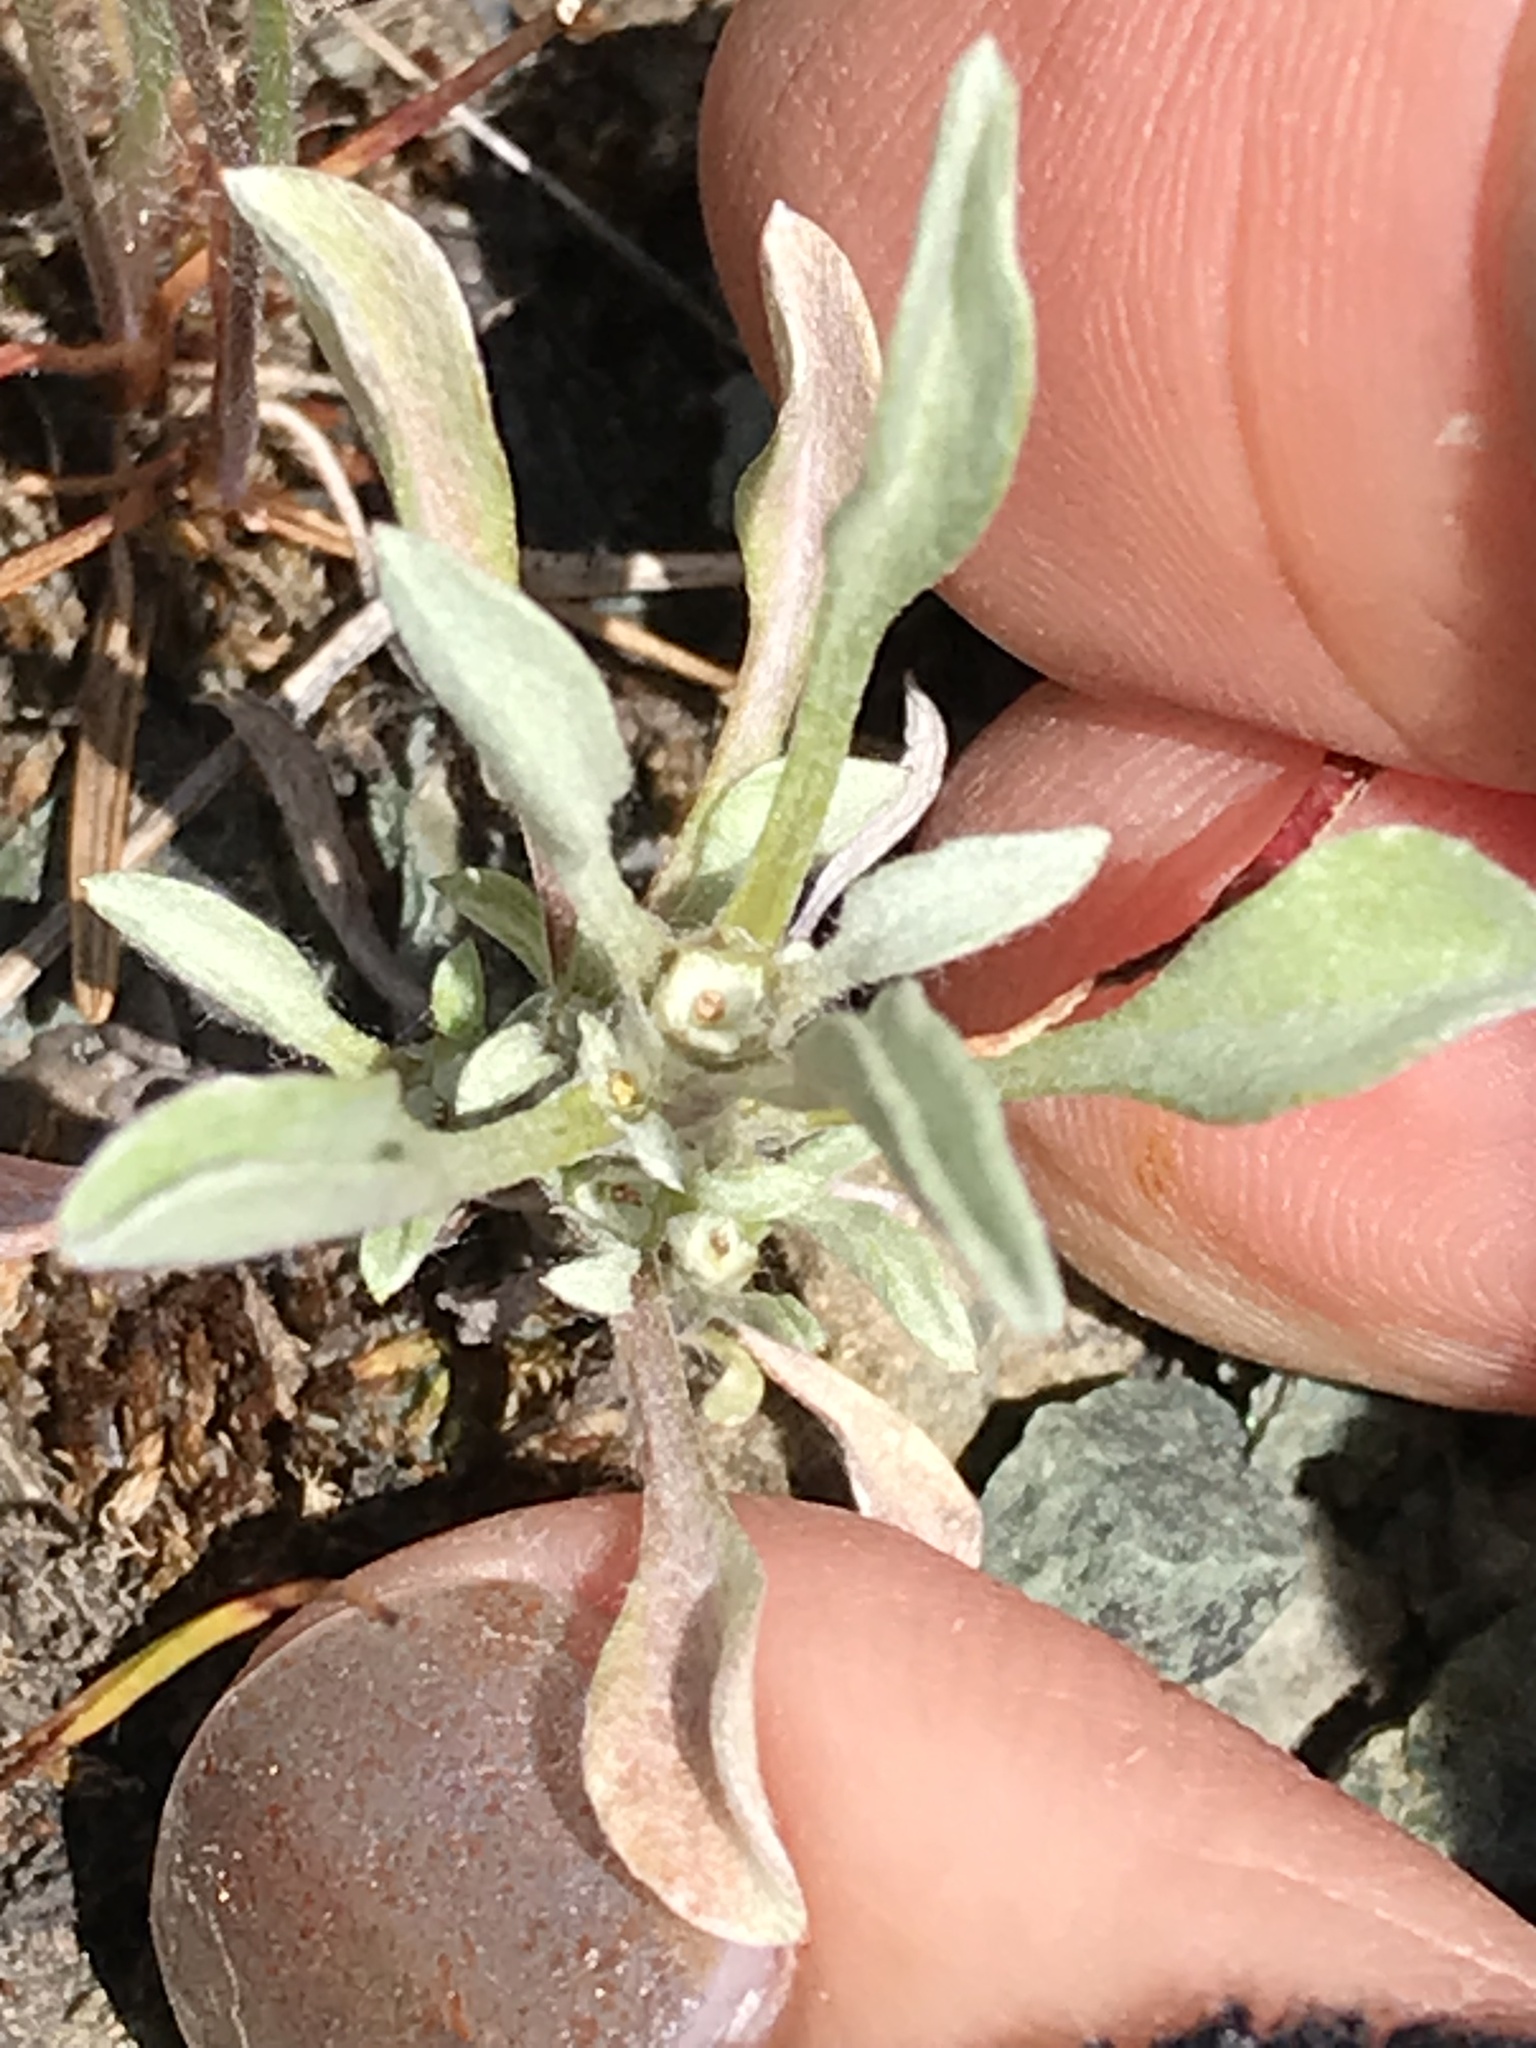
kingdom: Plantae
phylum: Tracheophyta
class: Magnoliopsida
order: Asterales
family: Asteraceae
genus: Hesperevax
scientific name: Hesperevax sparsiflora
